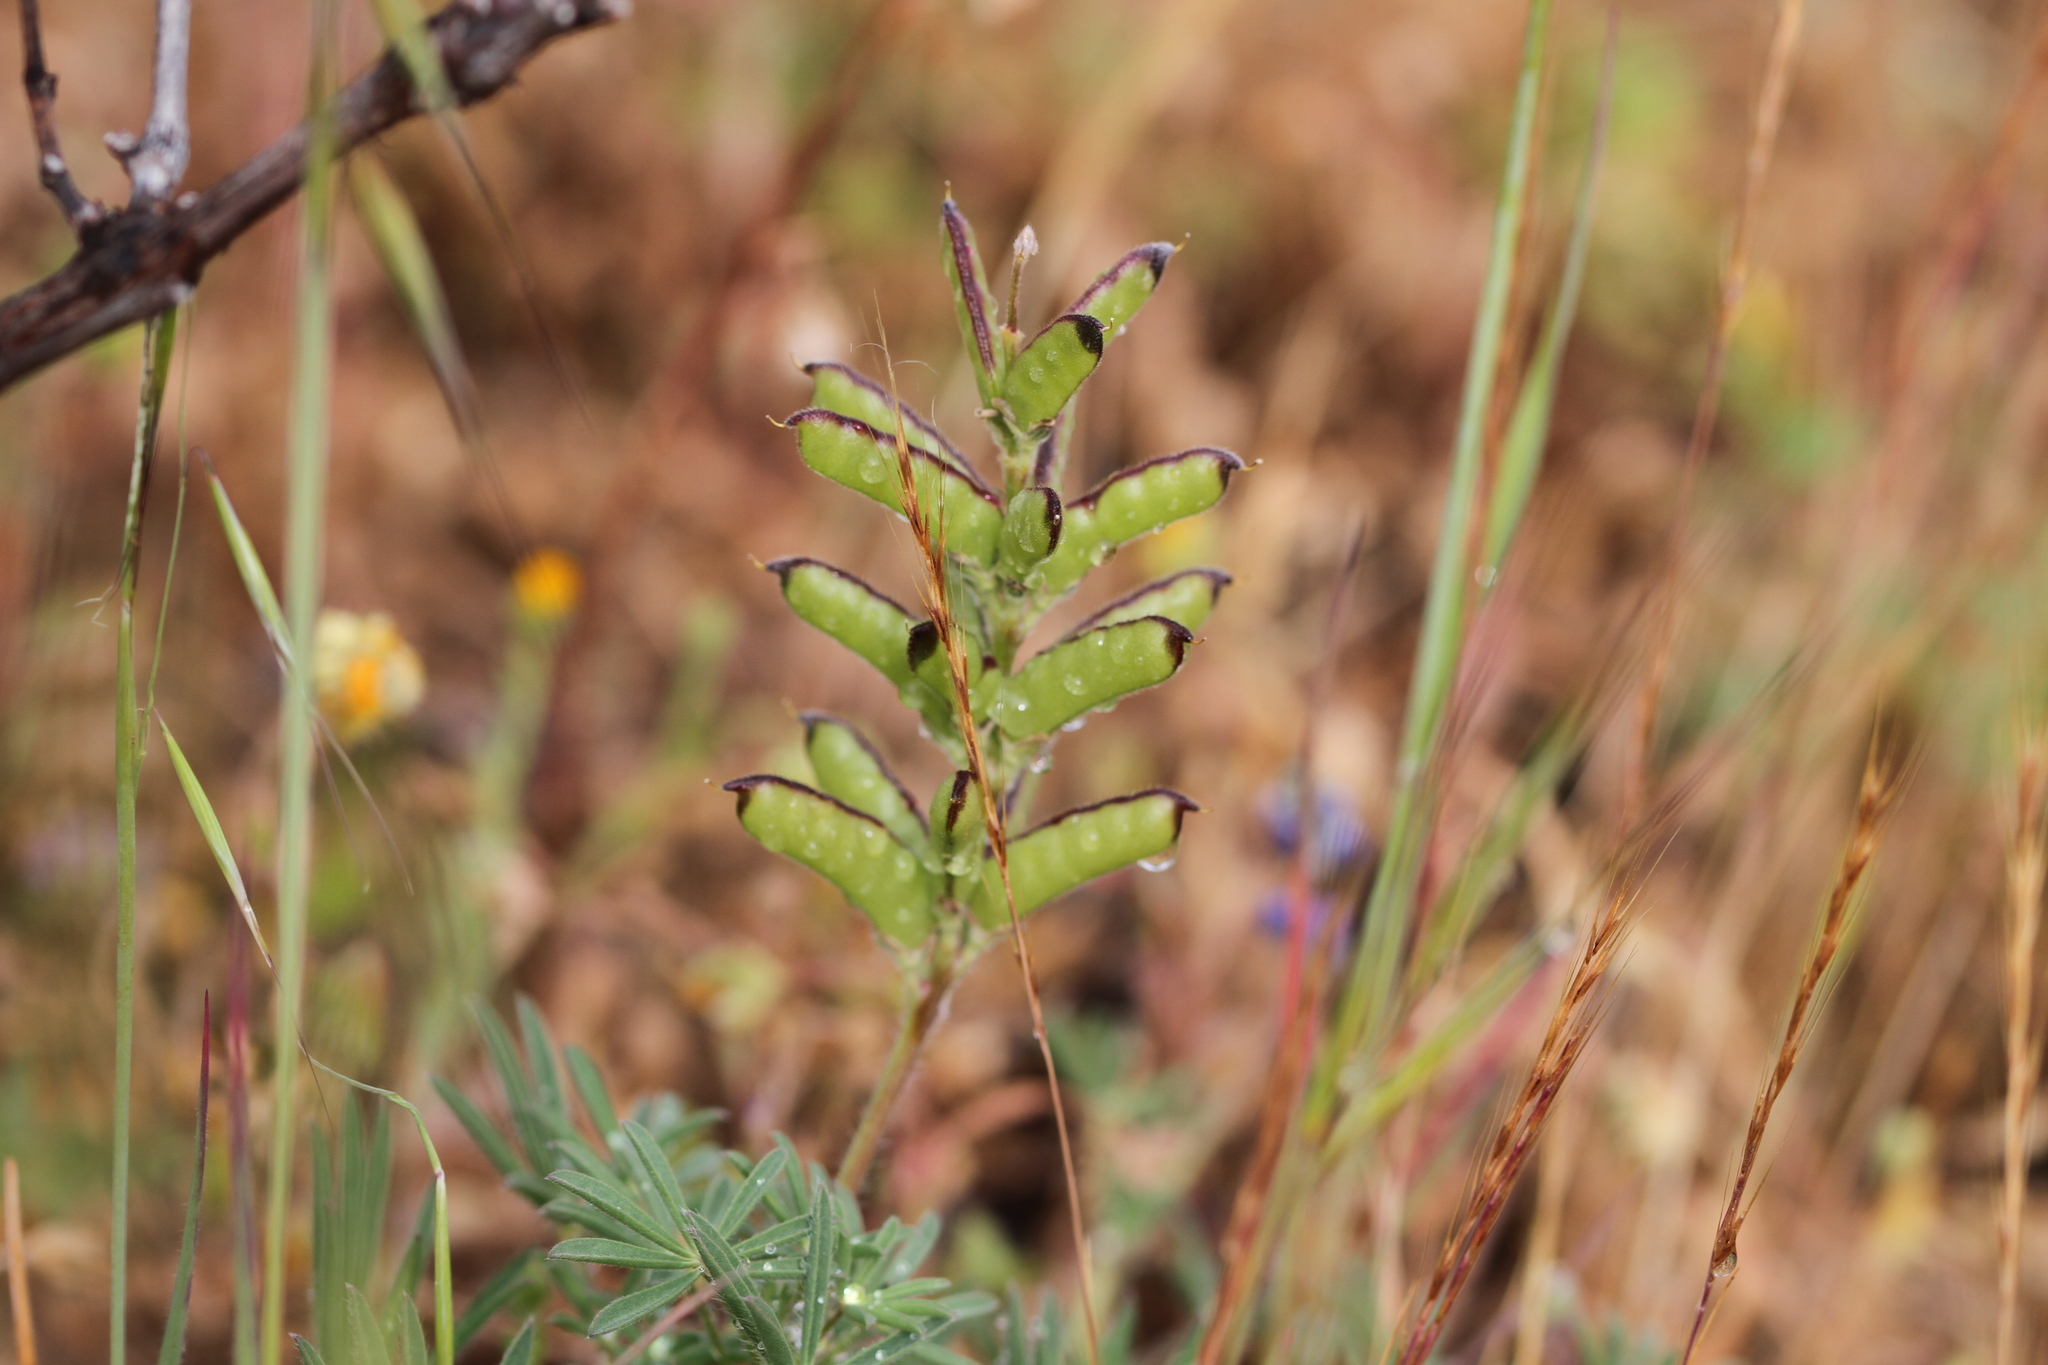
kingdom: Plantae
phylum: Tracheophyta
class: Magnoliopsida
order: Fabales
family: Fabaceae
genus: Lupinus
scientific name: Lupinus bicolor
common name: Miniature lupine
